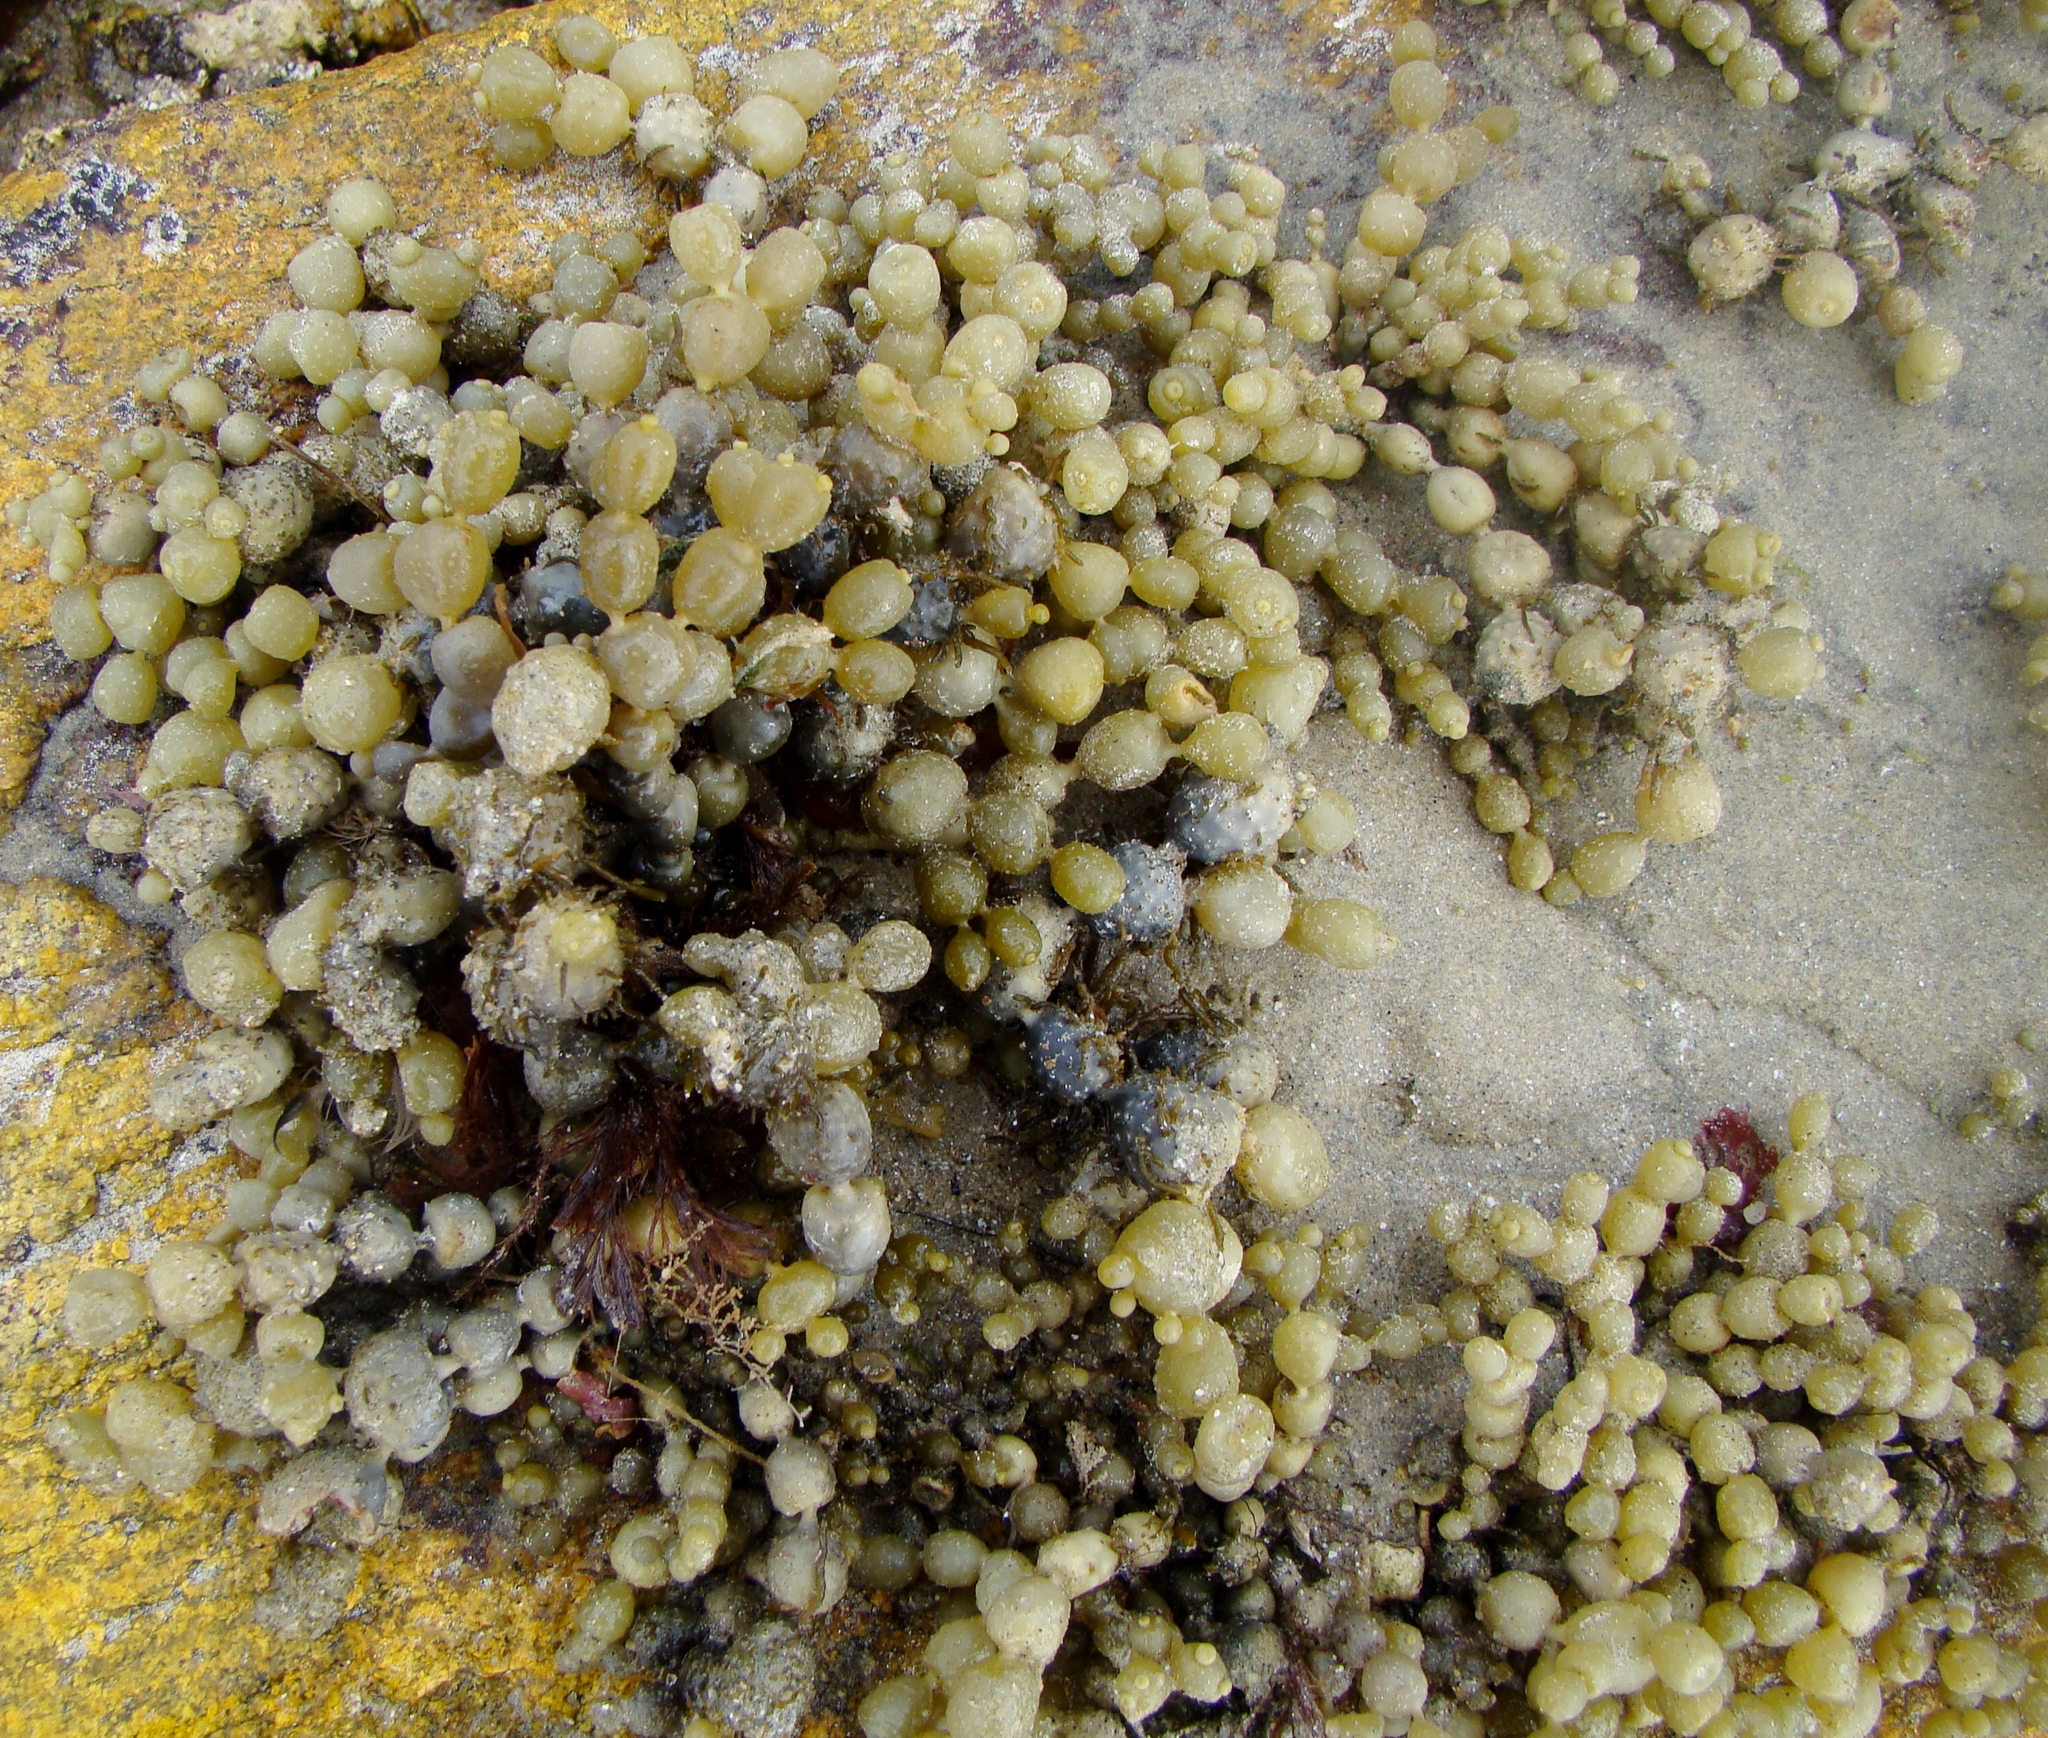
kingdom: Chromista
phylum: Ochrophyta
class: Phaeophyceae
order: Fucales
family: Hormosiraceae
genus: Hormosira
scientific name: Hormosira banksii
